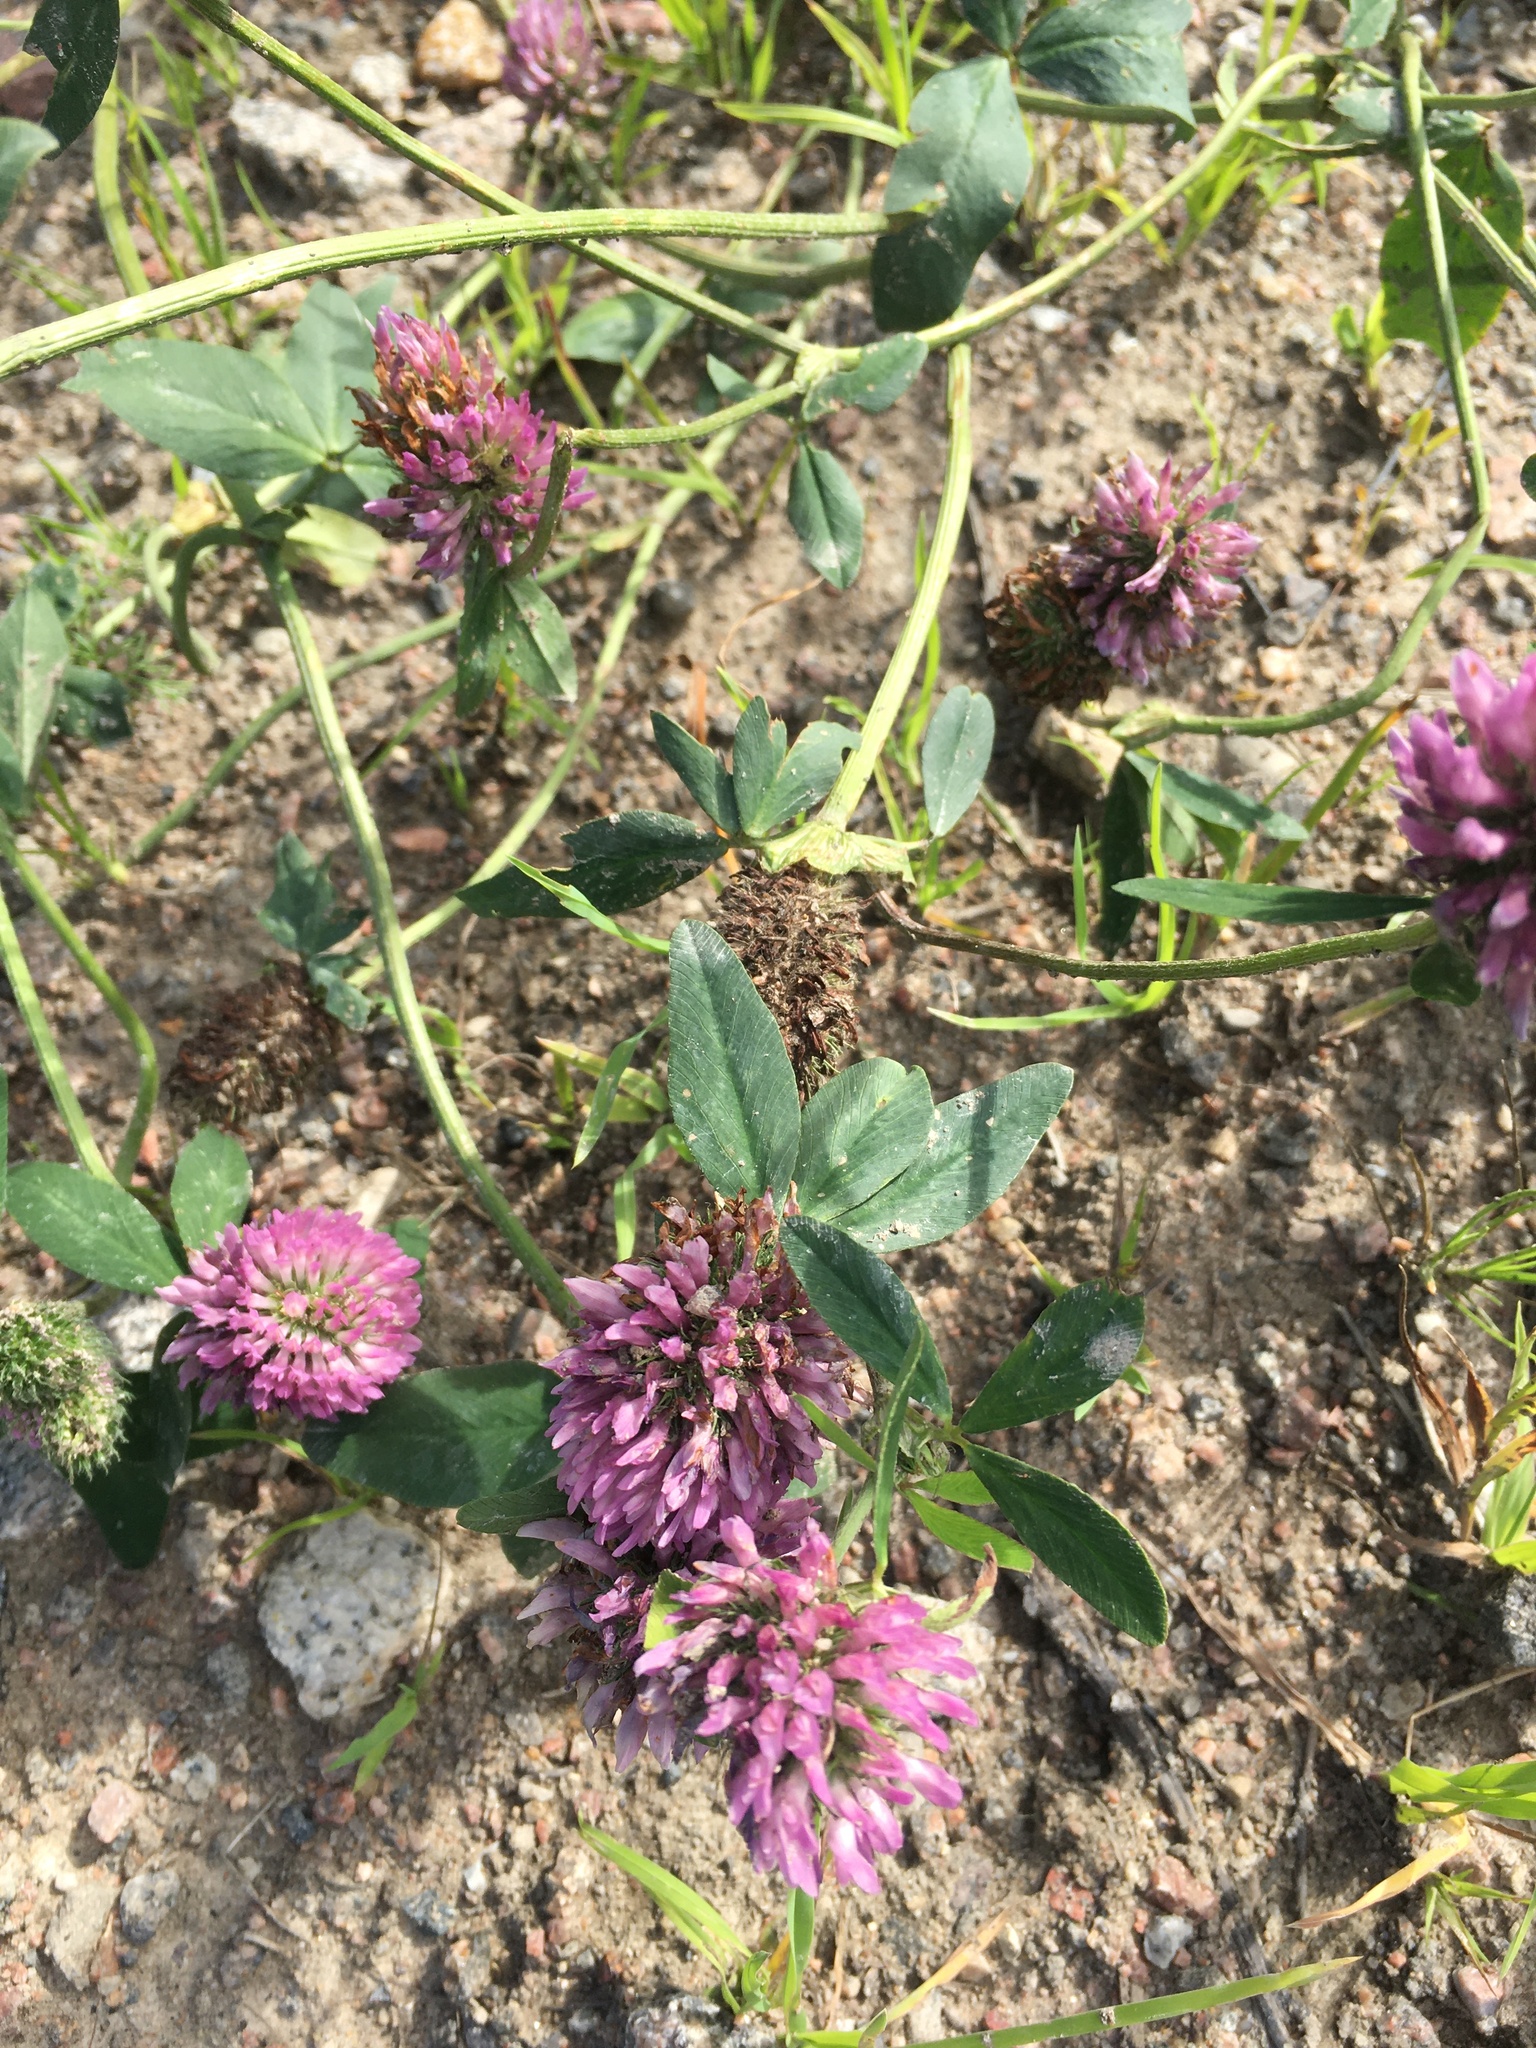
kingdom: Plantae
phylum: Tracheophyta
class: Magnoliopsida
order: Fabales
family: Fabaceae
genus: Trifolium
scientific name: Trifolium pratense
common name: Red clover
